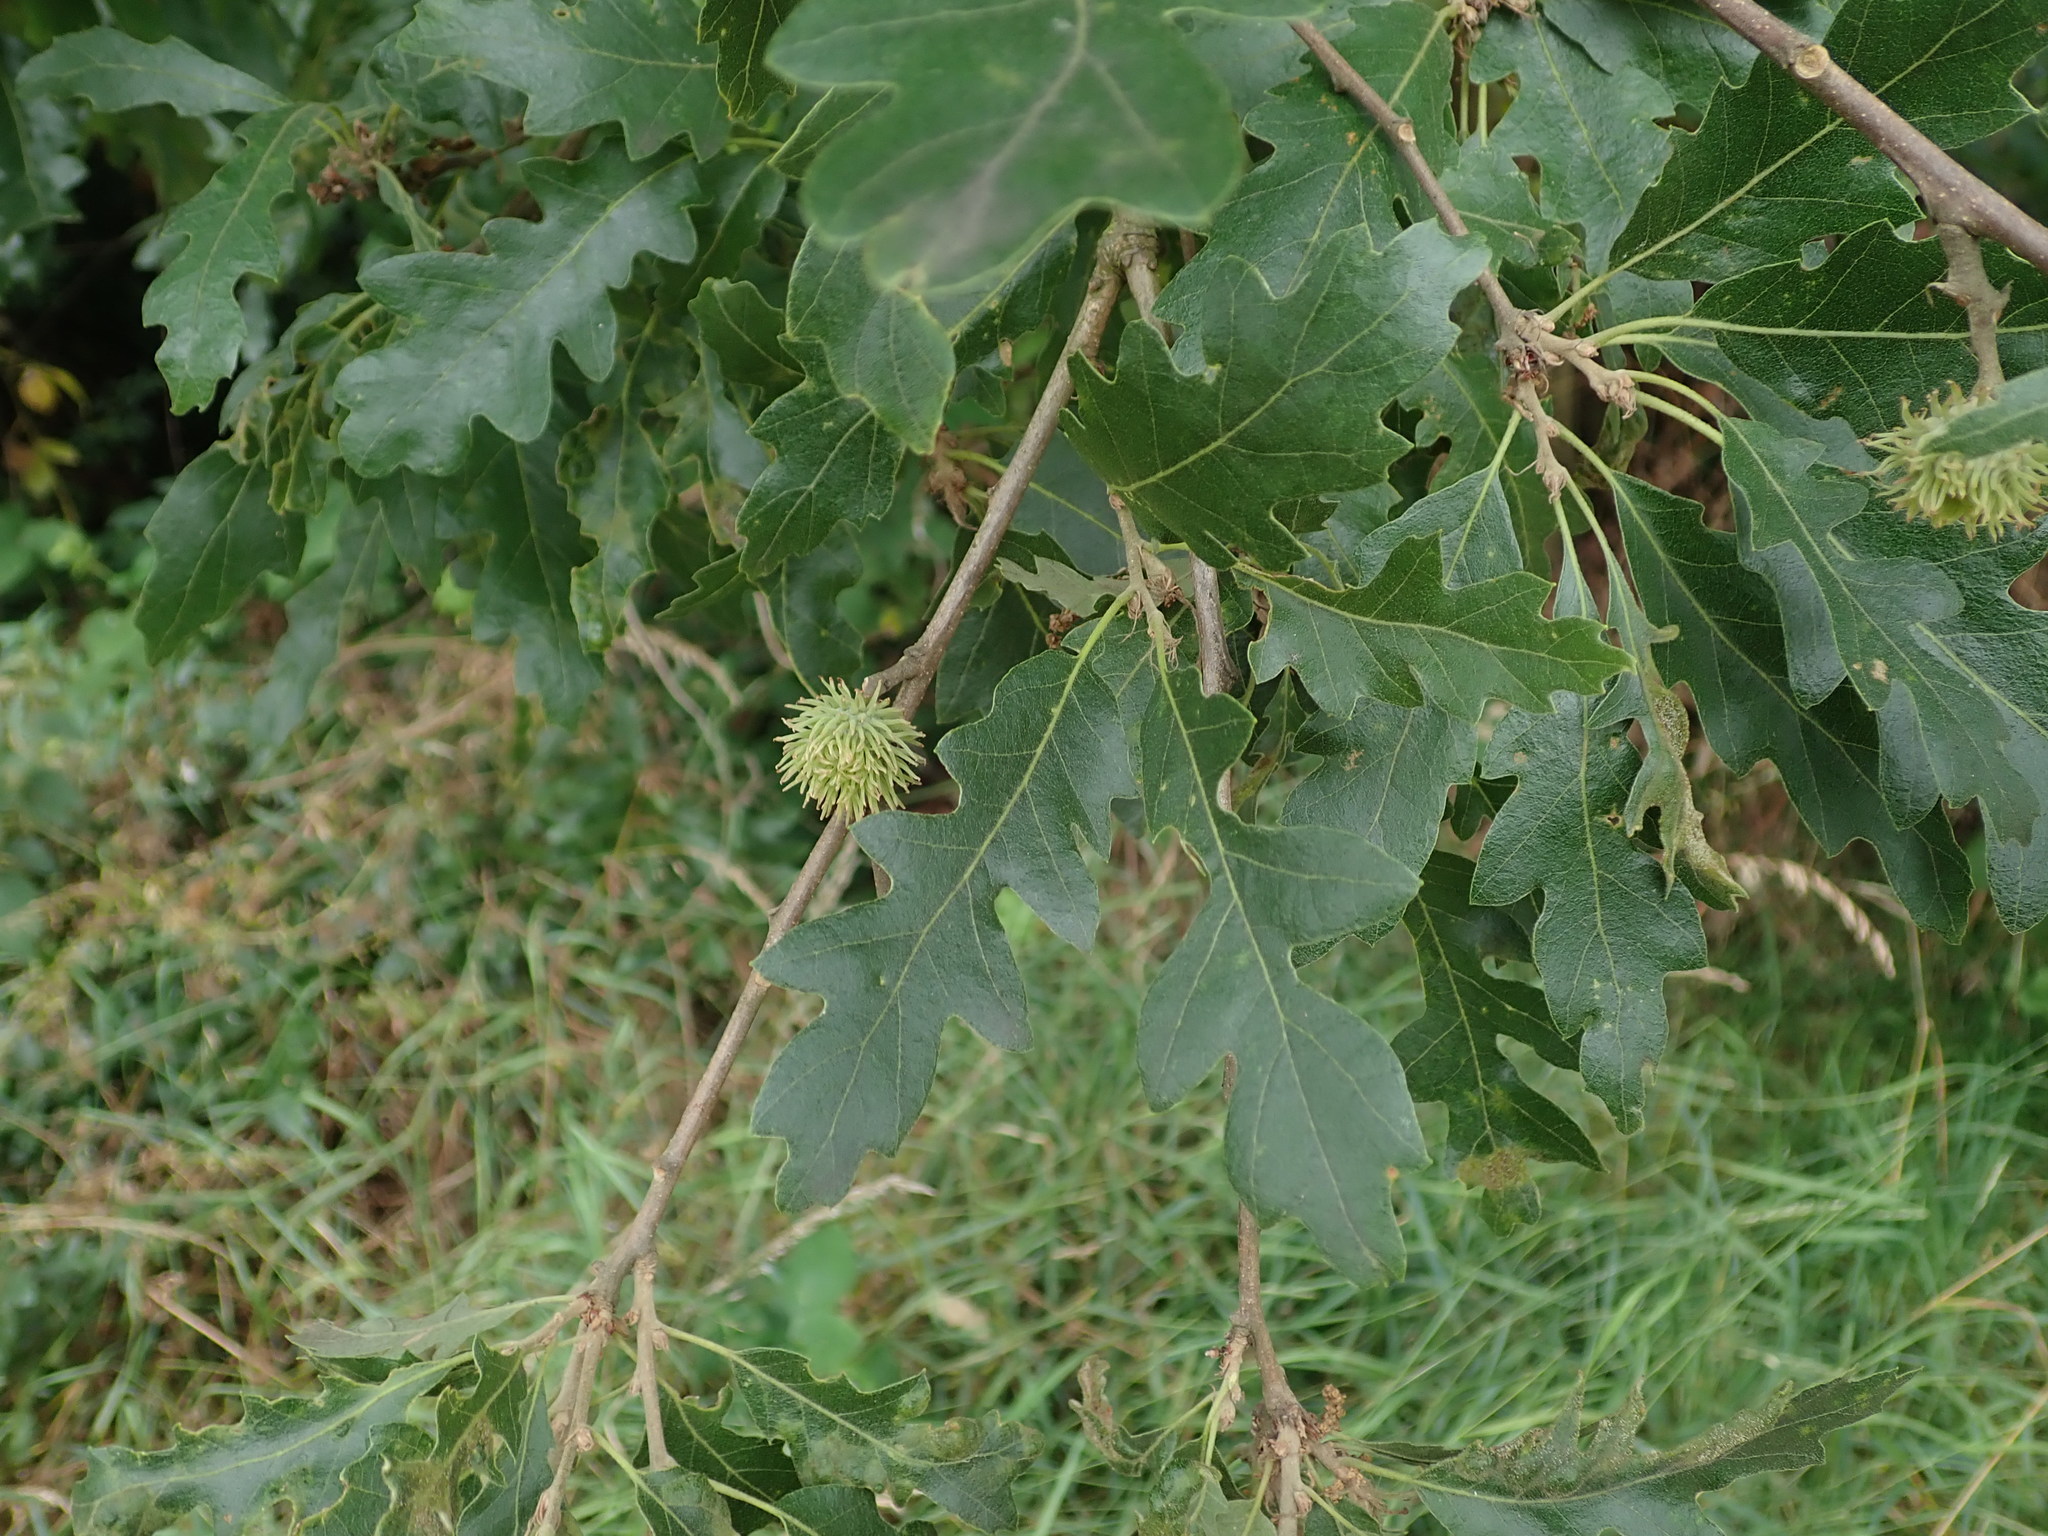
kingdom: Plantae
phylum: Tracheophyta
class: Magnoliopsida
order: Fagales
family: Fagaceae
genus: Quercus
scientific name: Quercus cerris
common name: Turkey oak
